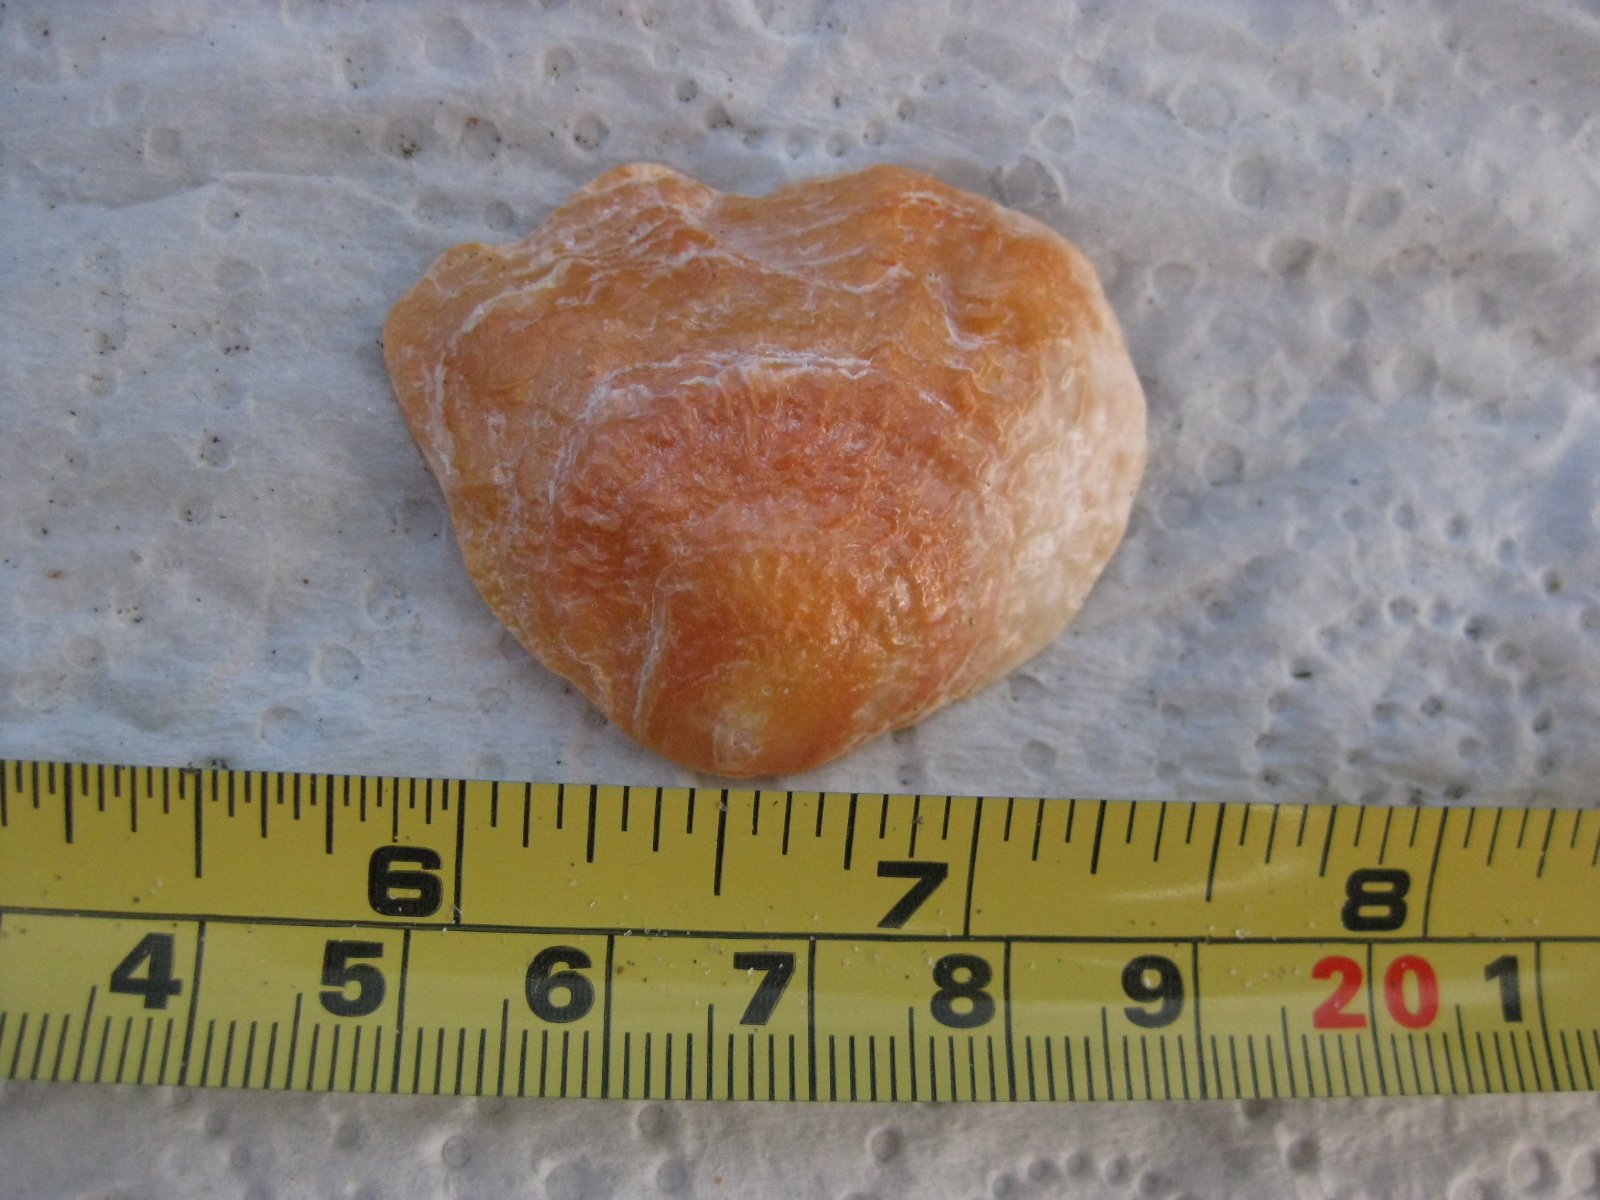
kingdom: Animalia
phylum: Mollusca
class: Bivalvia
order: Pectinida
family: Anomiidae
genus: Anomia
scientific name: Anomia trigonopsis
